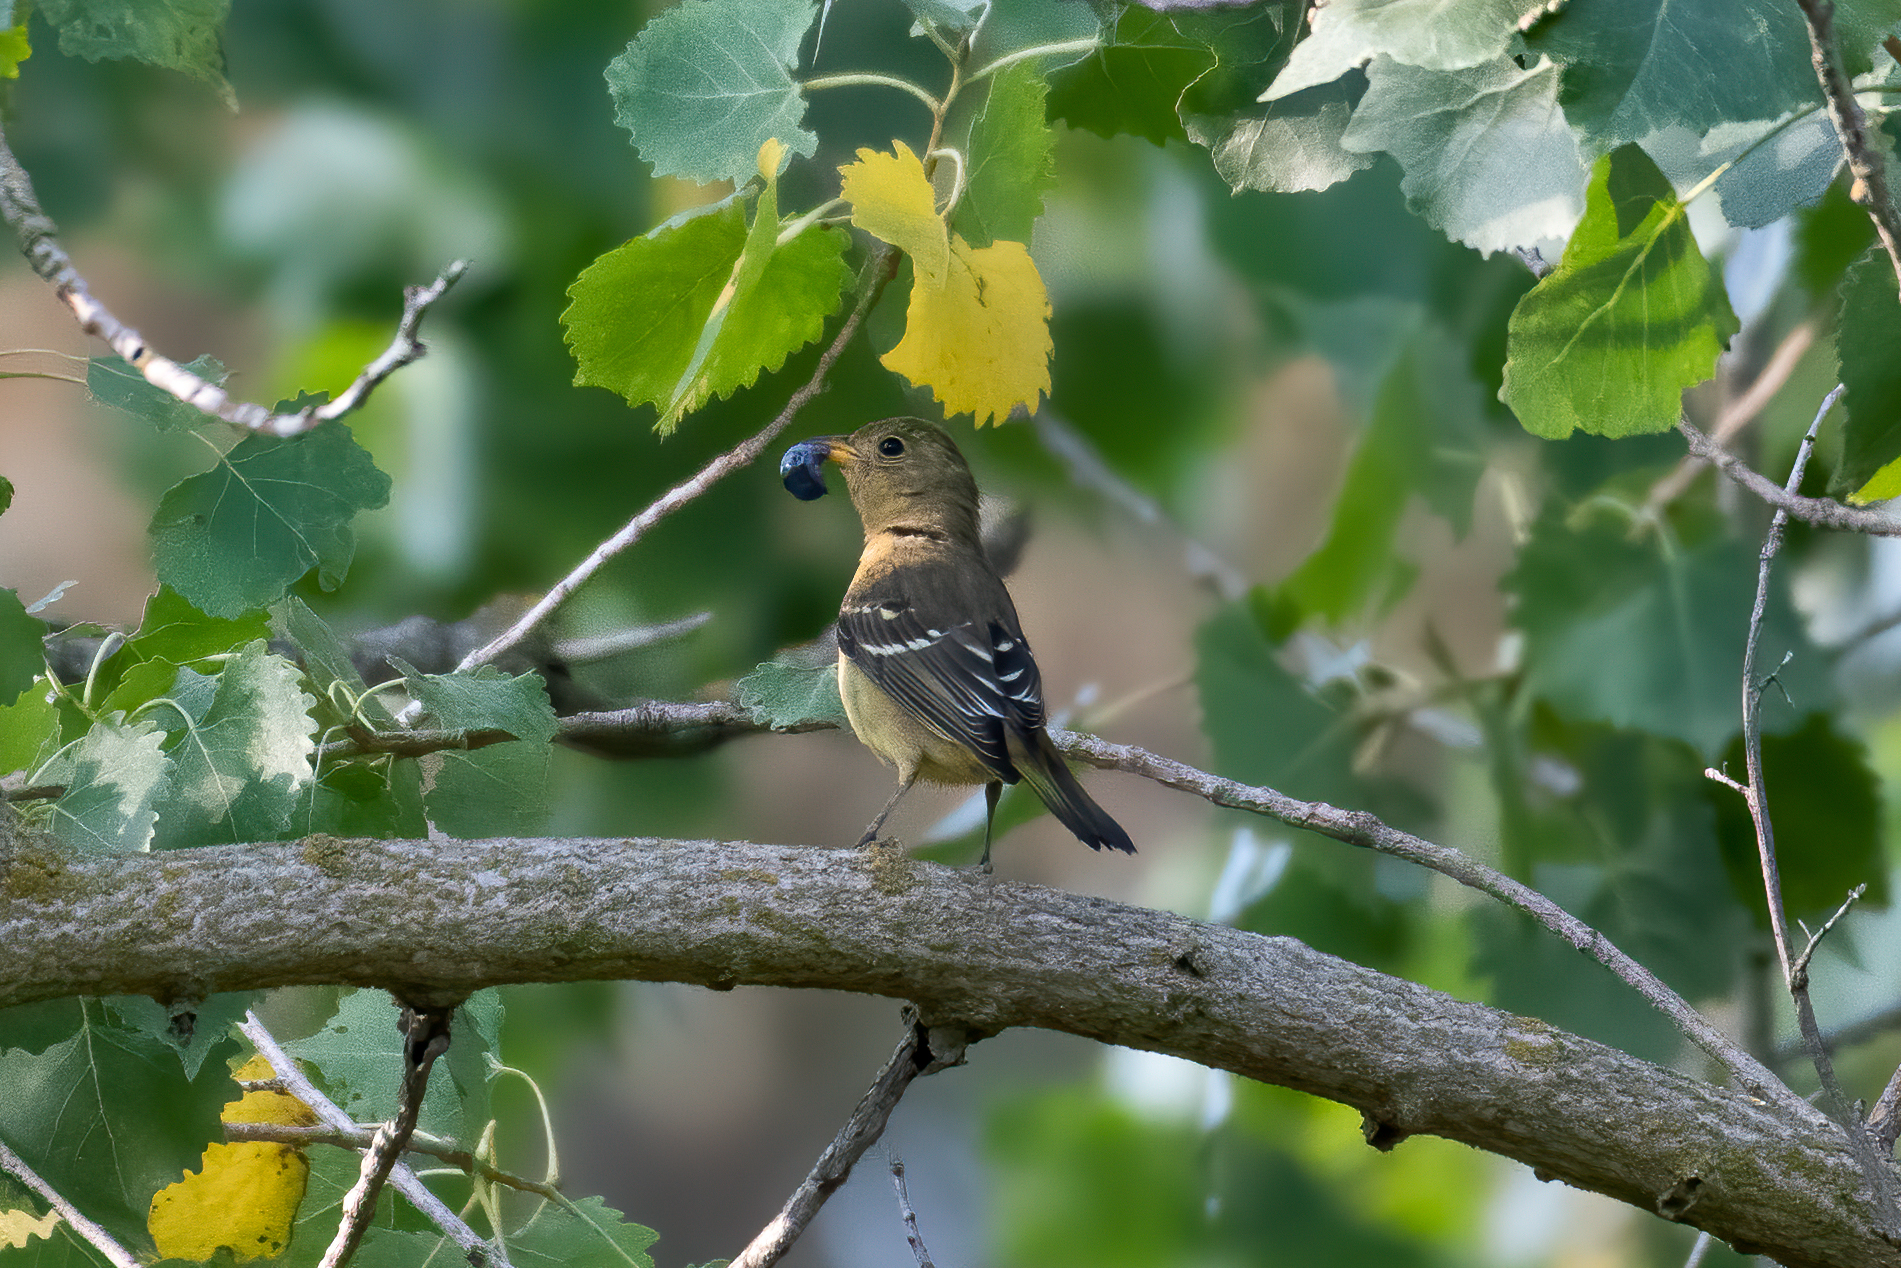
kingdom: Animalia
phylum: Chordata
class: Aves
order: Passeriformes
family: Cardinalidae
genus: Piranga
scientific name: Piranga ludoviciana
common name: Western tanager
